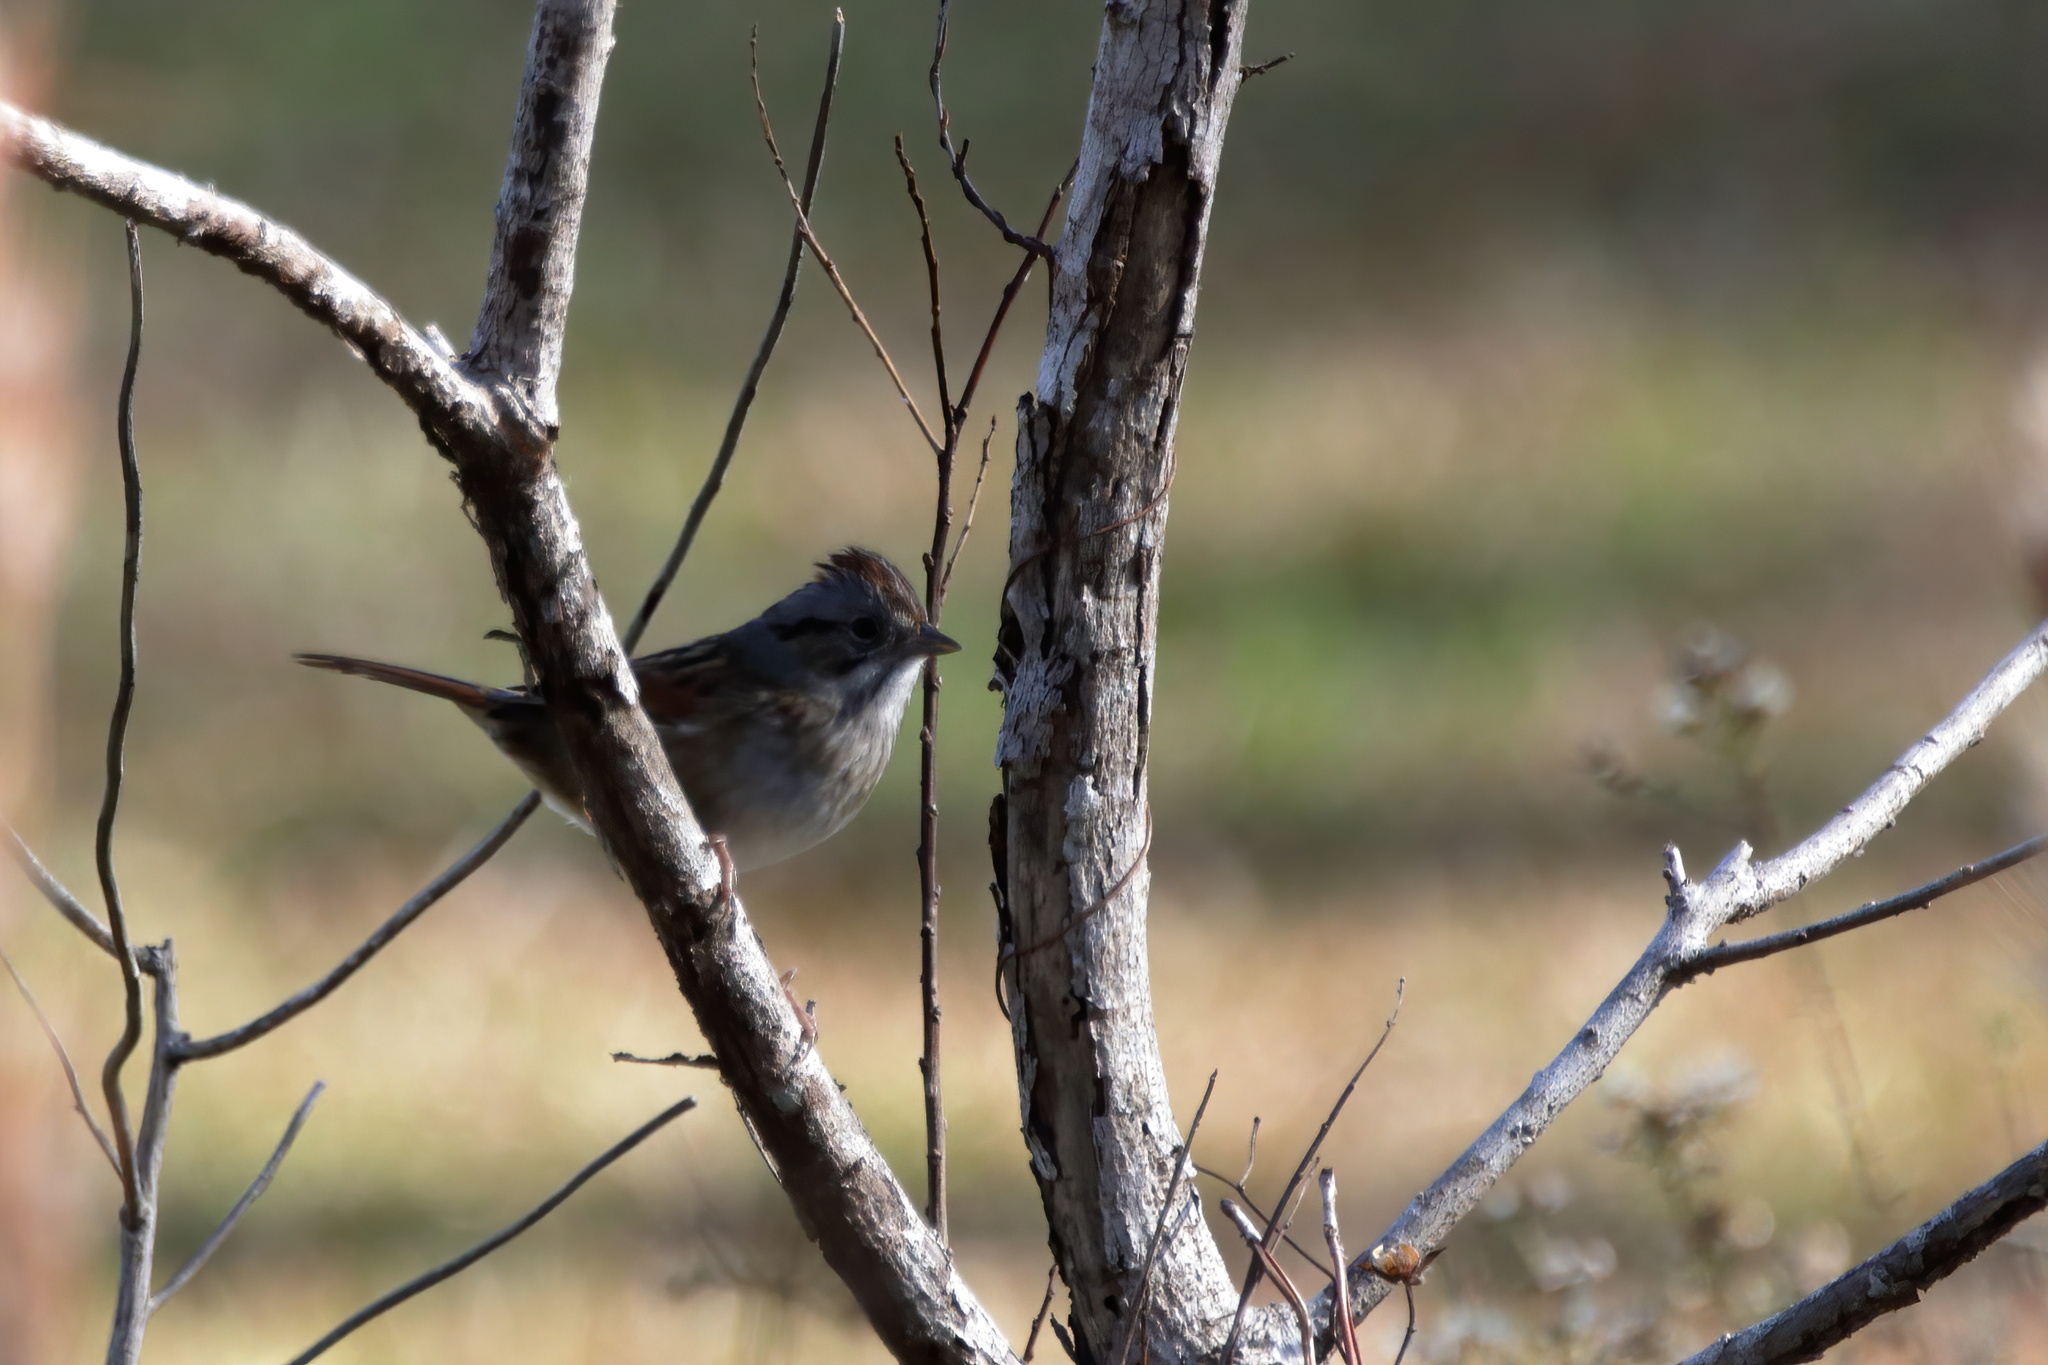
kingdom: Animalia
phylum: Chordata
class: Aves
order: Passeriformes
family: Passerellidae
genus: Melospiza
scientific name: Melospiza georgiana
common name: Swamp sparrow
